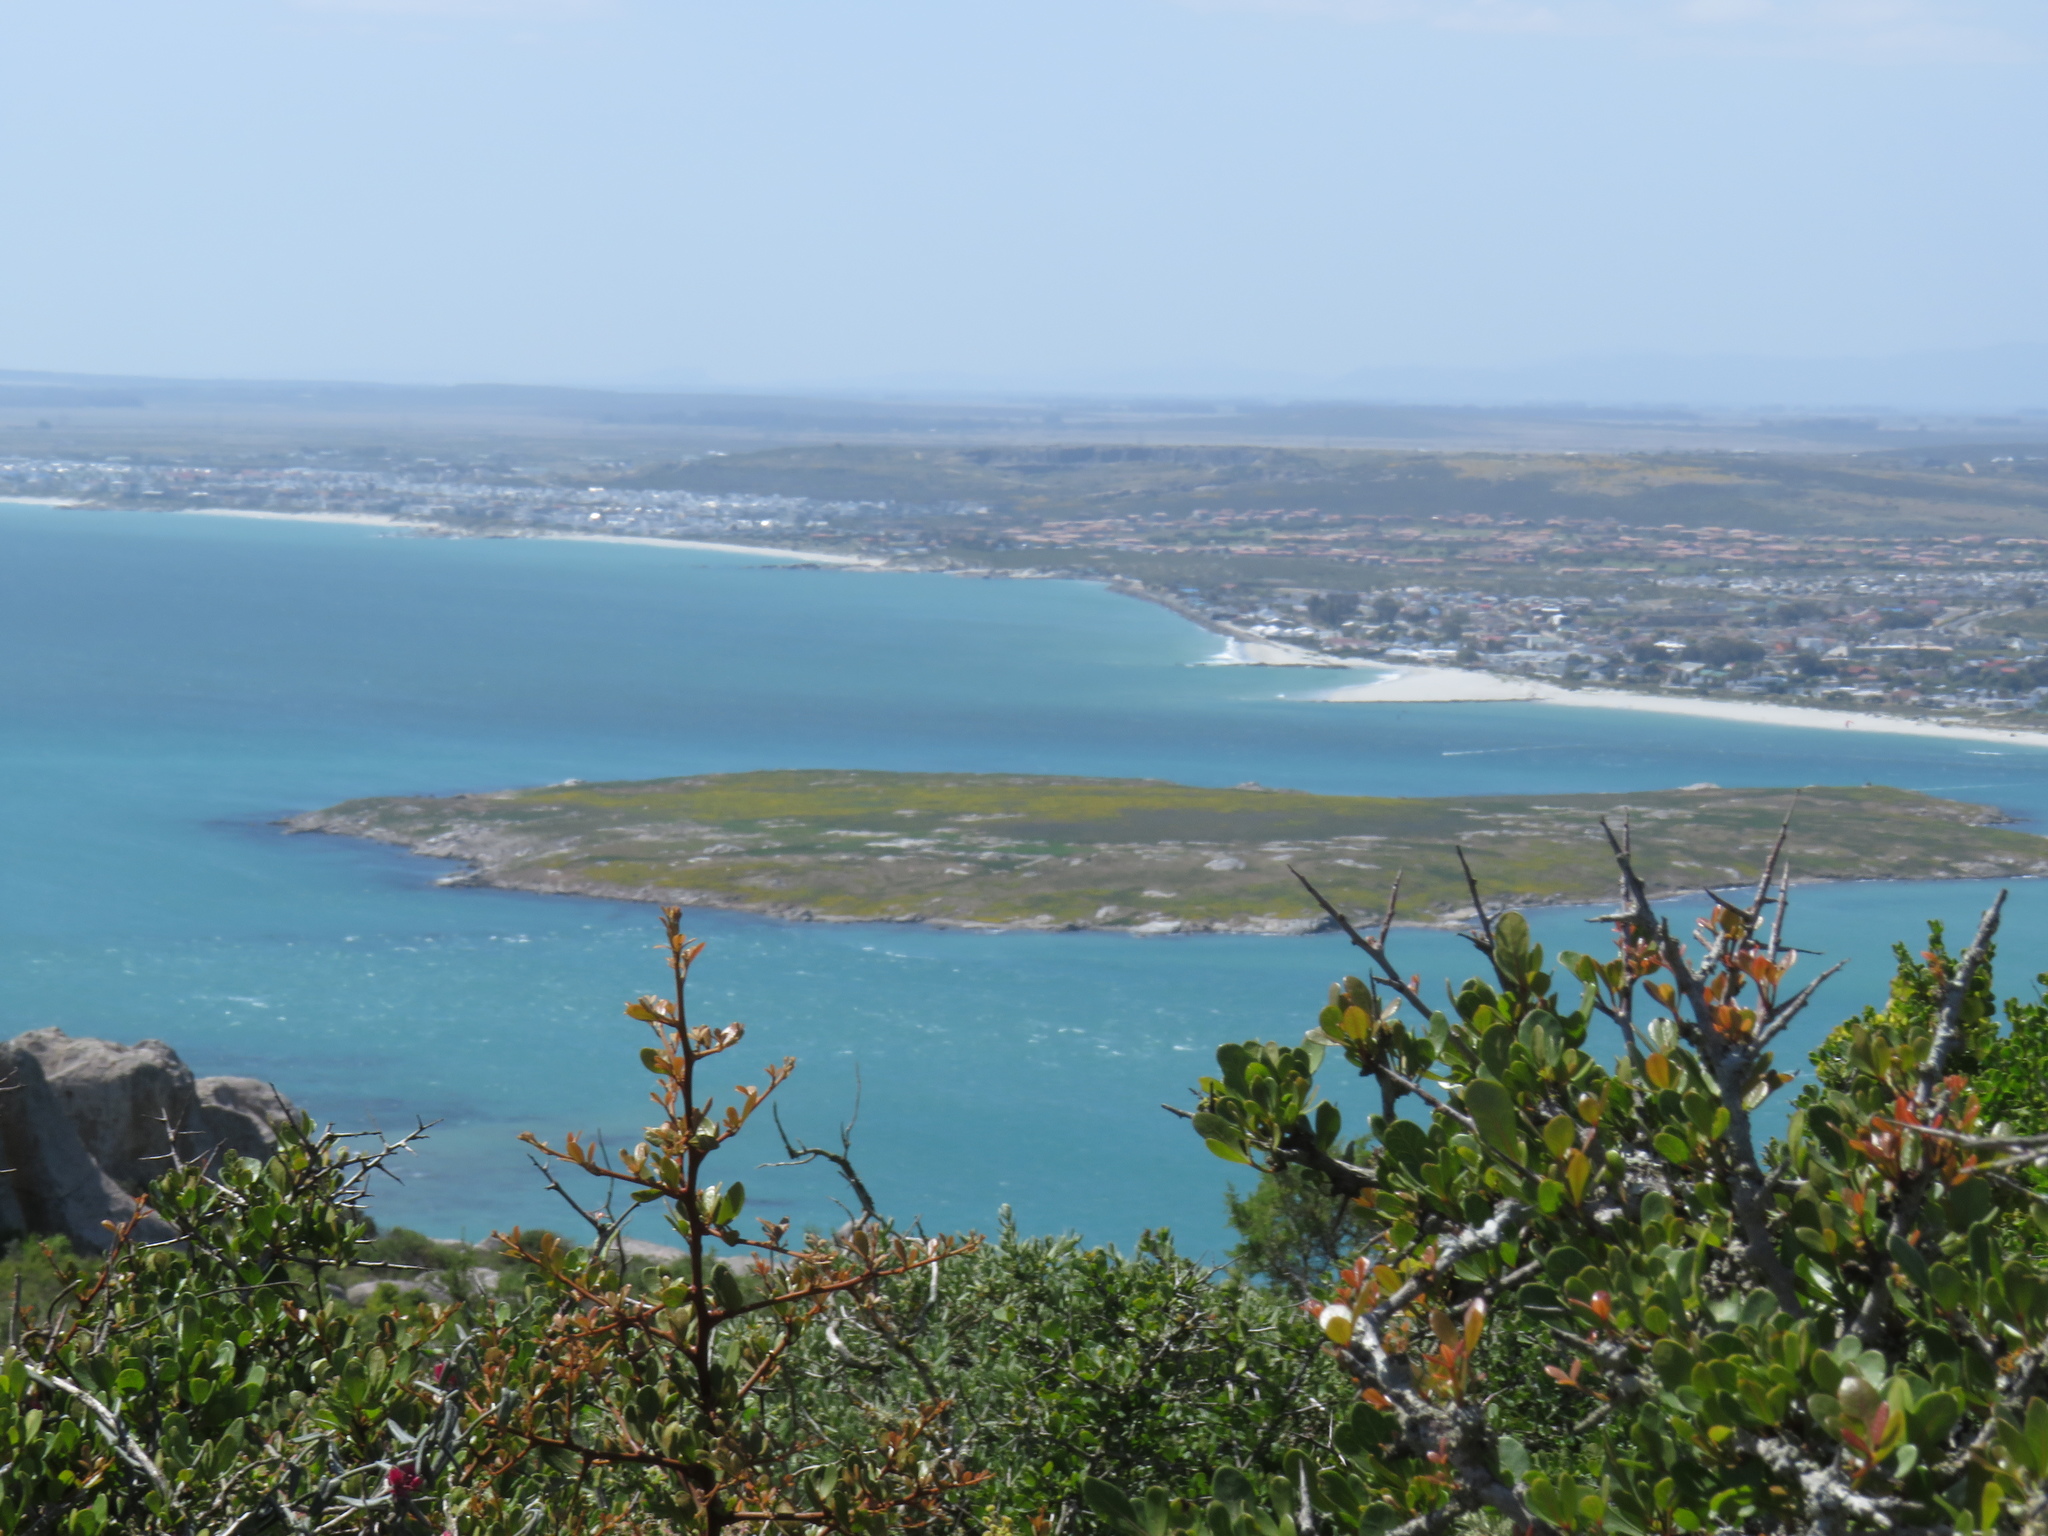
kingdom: Plantae
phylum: Tracheophyta
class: Magnoliopsida
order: Sapindales
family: Anacardiaceae
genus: Searsia
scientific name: Searsia pterota
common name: Winged currant
